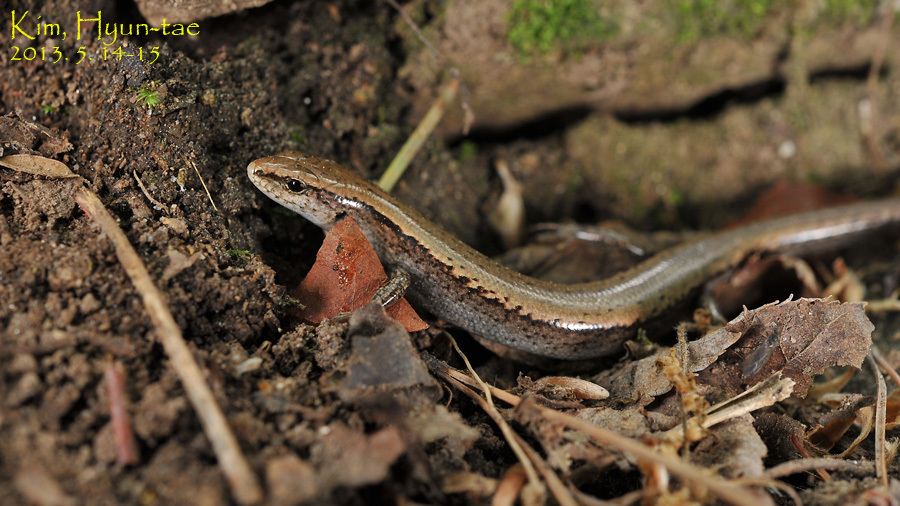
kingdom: Animalia
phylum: Chordata
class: Squamata
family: Scincidae
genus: Scincella
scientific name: Scincella vandenburghi
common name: Tsushima smooth skink
